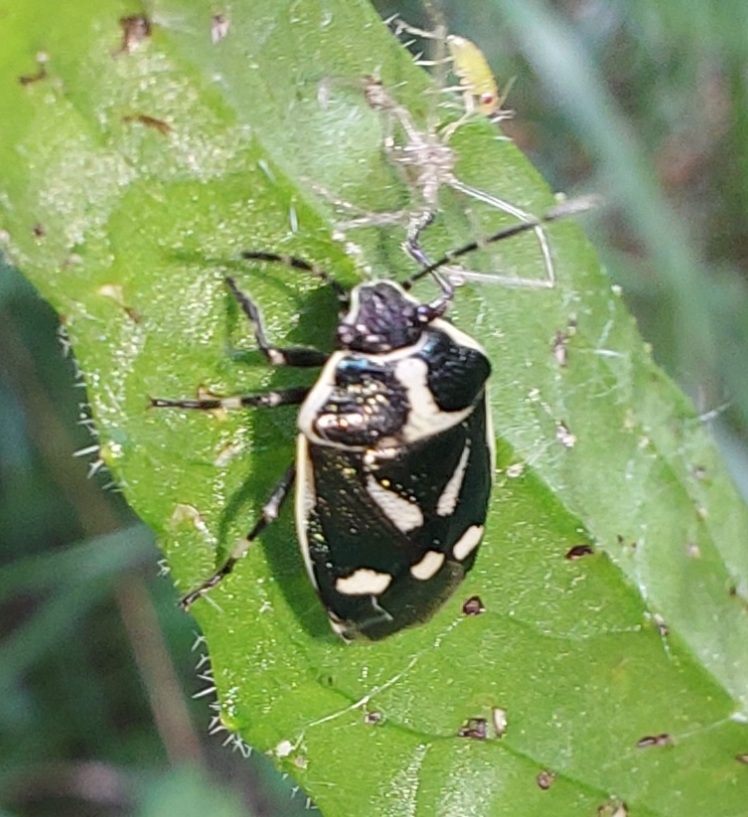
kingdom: Animalia
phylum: Arthropoda
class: Insecta
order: Hemiptera
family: Pentatomidae
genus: Eurydema
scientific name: Eurydema oleracea
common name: Cabbage bug
